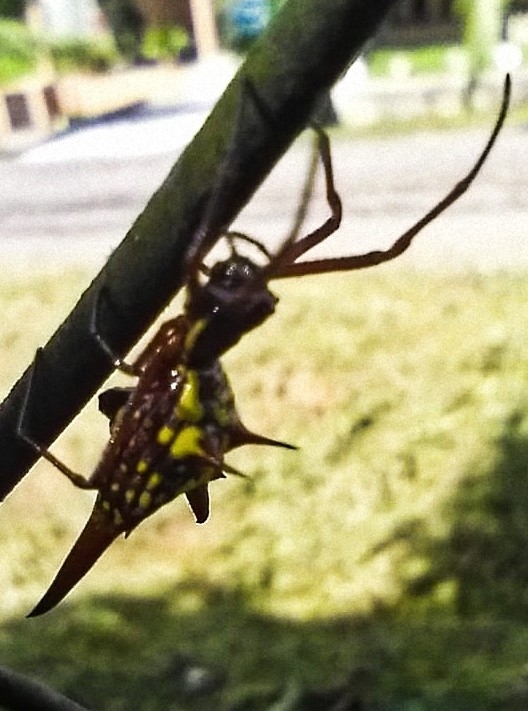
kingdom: Animalia
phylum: Arthropoda
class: Arachnida
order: Araneae
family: Araneidae
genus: Micrathena
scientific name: Micrathena sexspinosa
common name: Orb weavers
